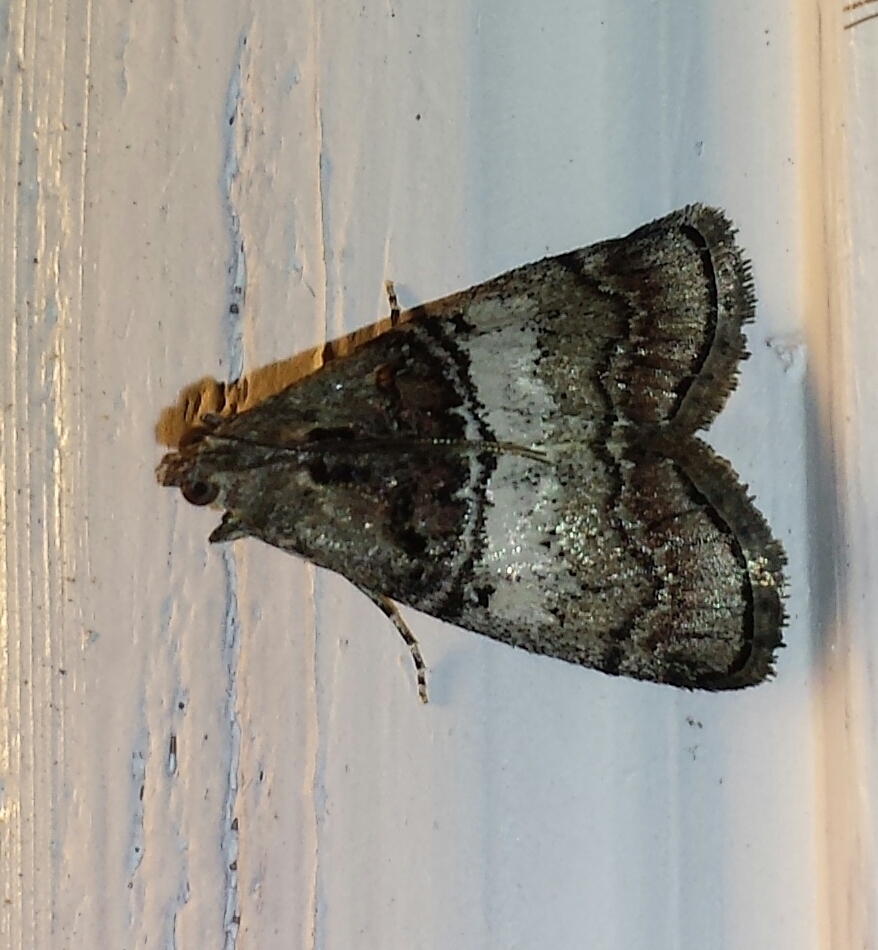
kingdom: Animalia
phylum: Arthropoda
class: Insecta
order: Lepidoptera
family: Pyralidae
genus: Pococera
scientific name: Pococera asperatella
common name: Maple webworm moth
